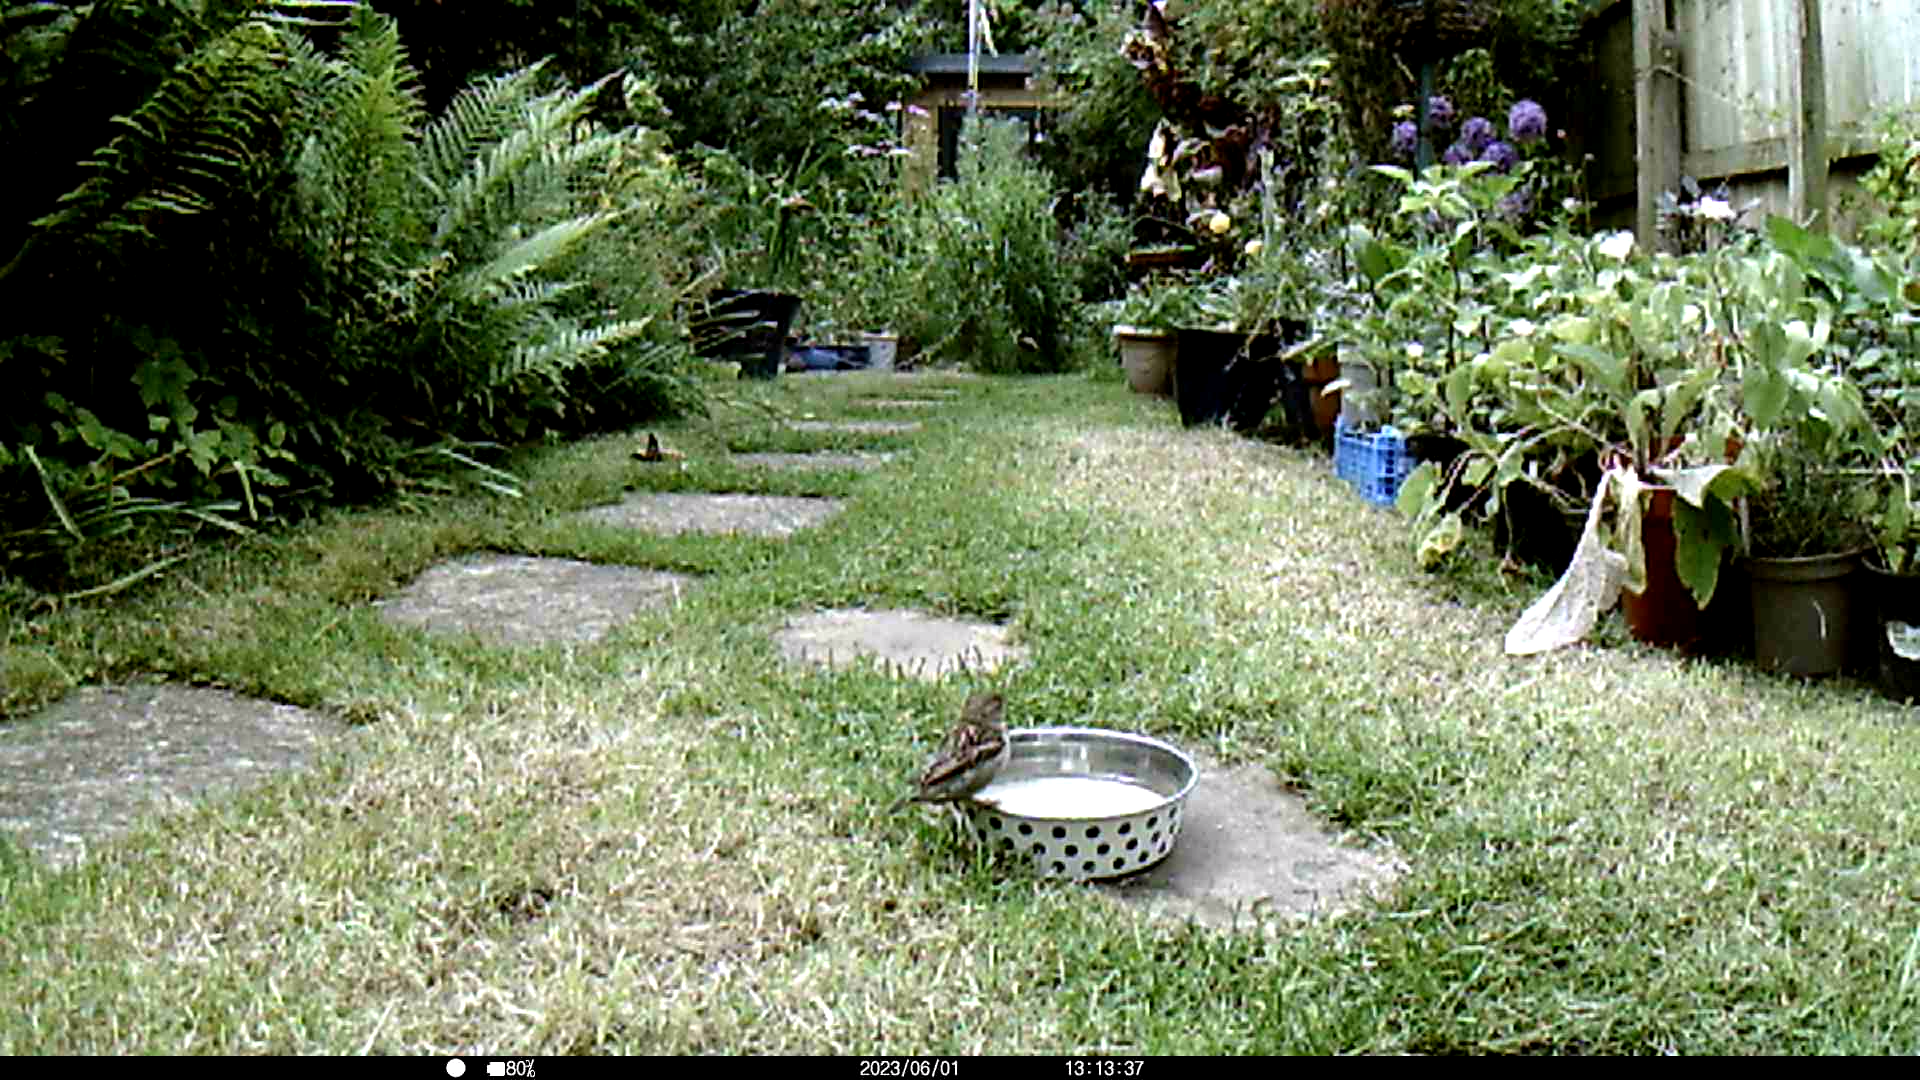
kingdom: Animalia
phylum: Chordata
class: Aves
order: Passeriformes
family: Passeridae
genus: Passer
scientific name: Passer domesticus
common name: House sparrow
